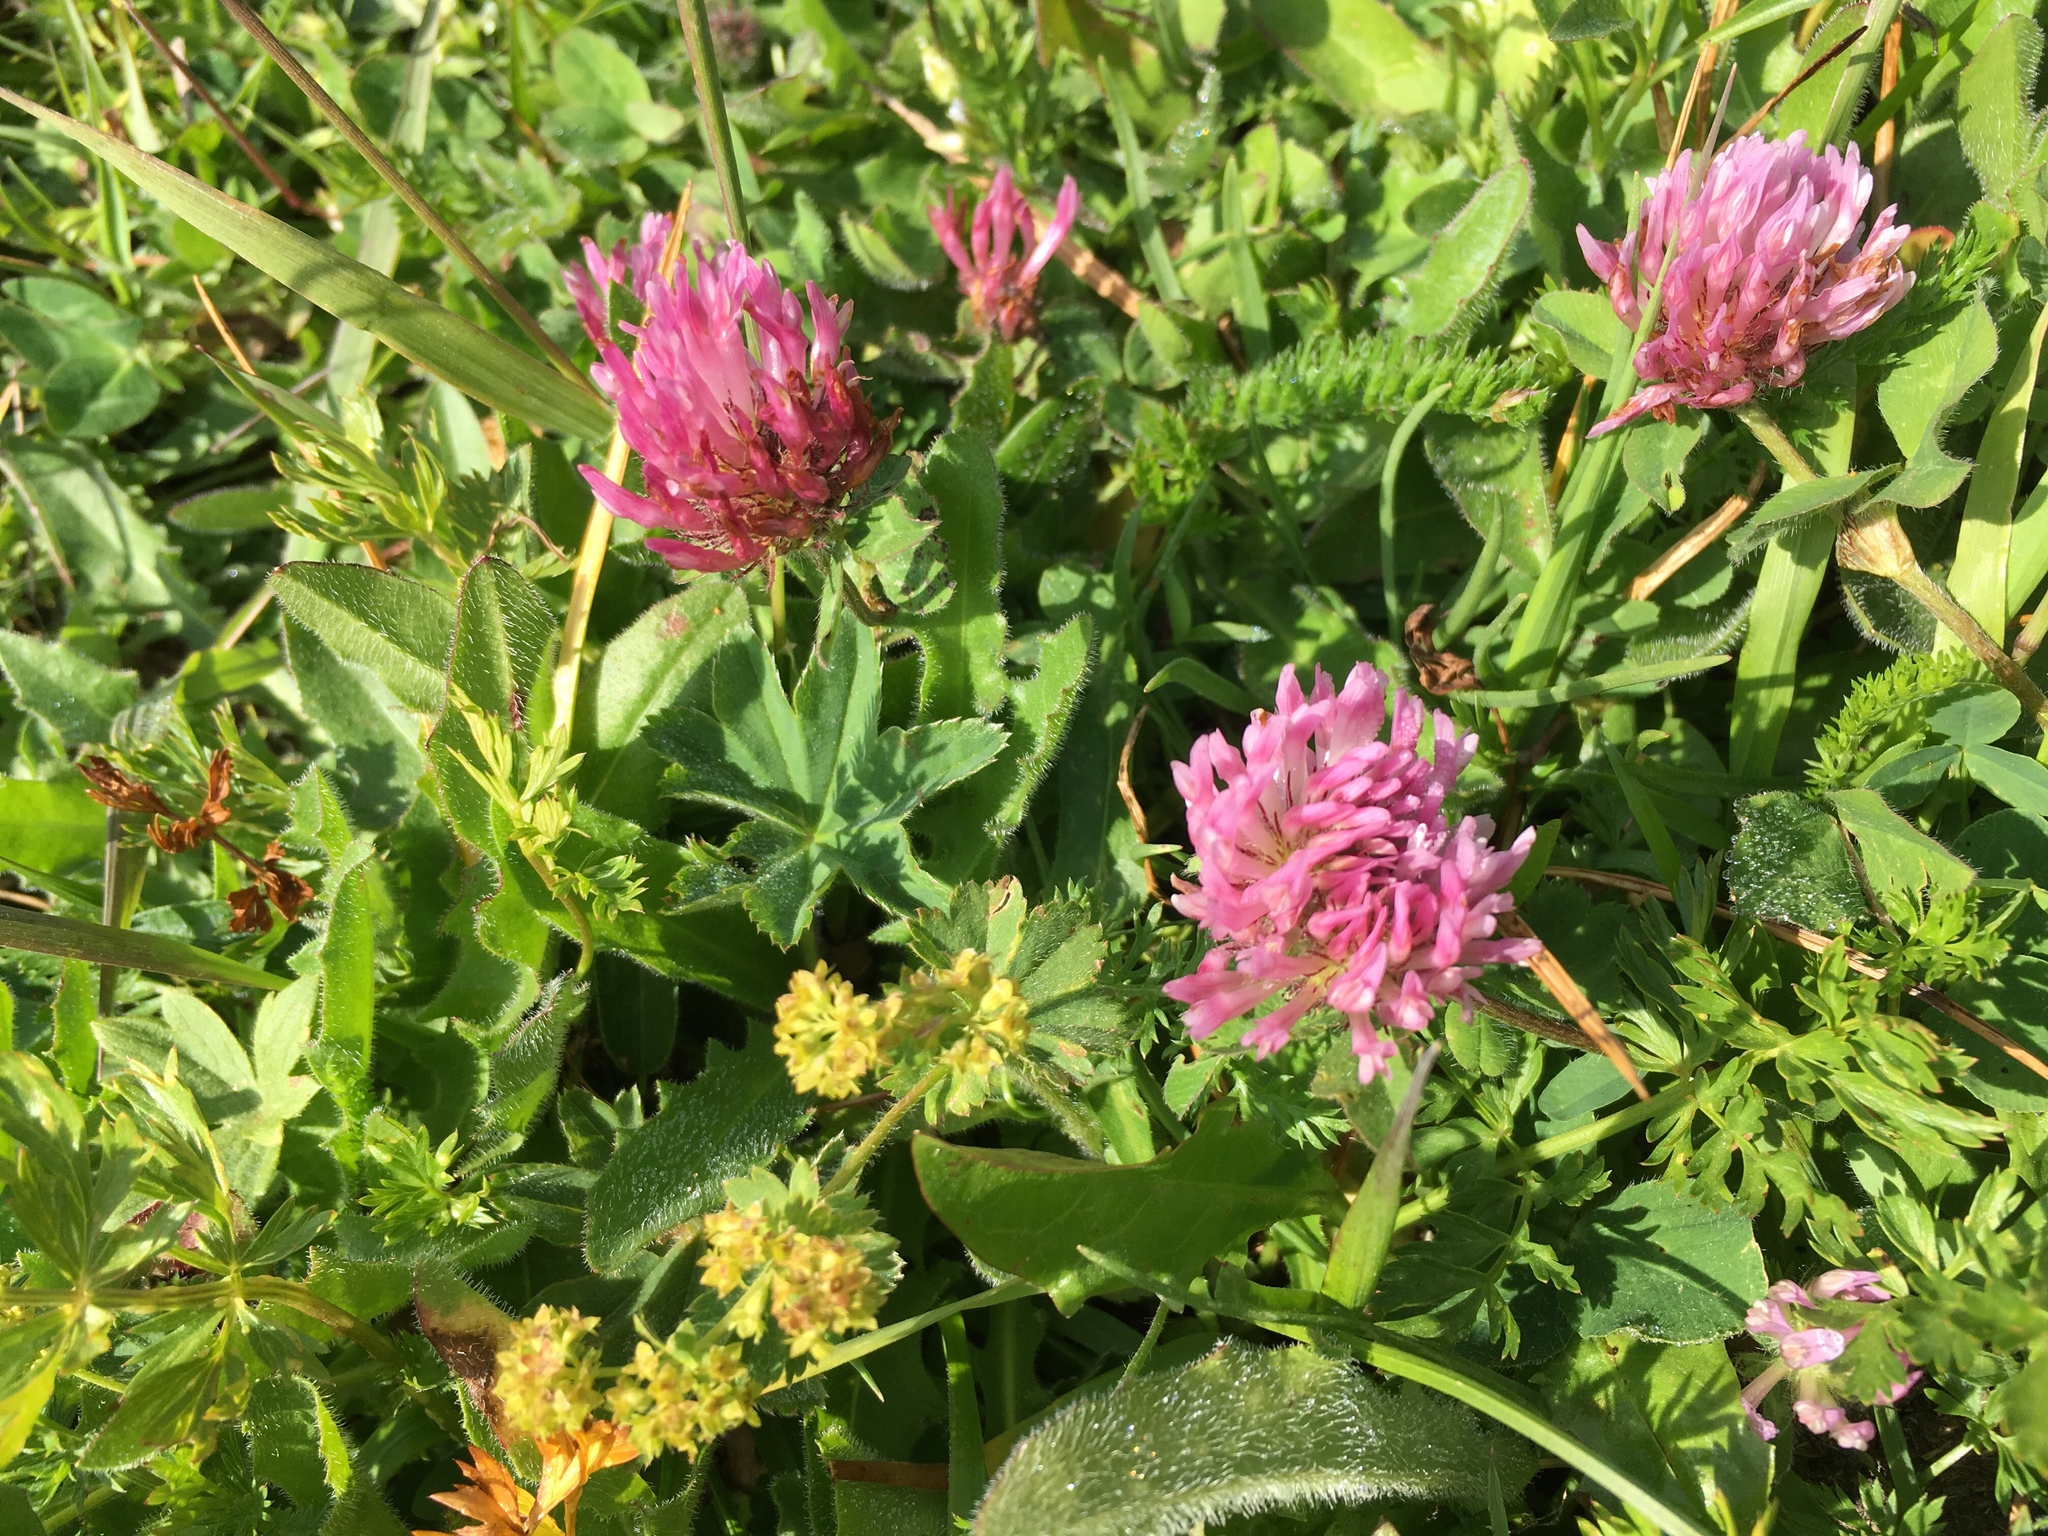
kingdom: Plantae
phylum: Tracheophyta
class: Magnoliopsida
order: Fabales
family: Fabaceae
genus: Trifolium
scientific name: Trifolium pratense
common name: Red clover
